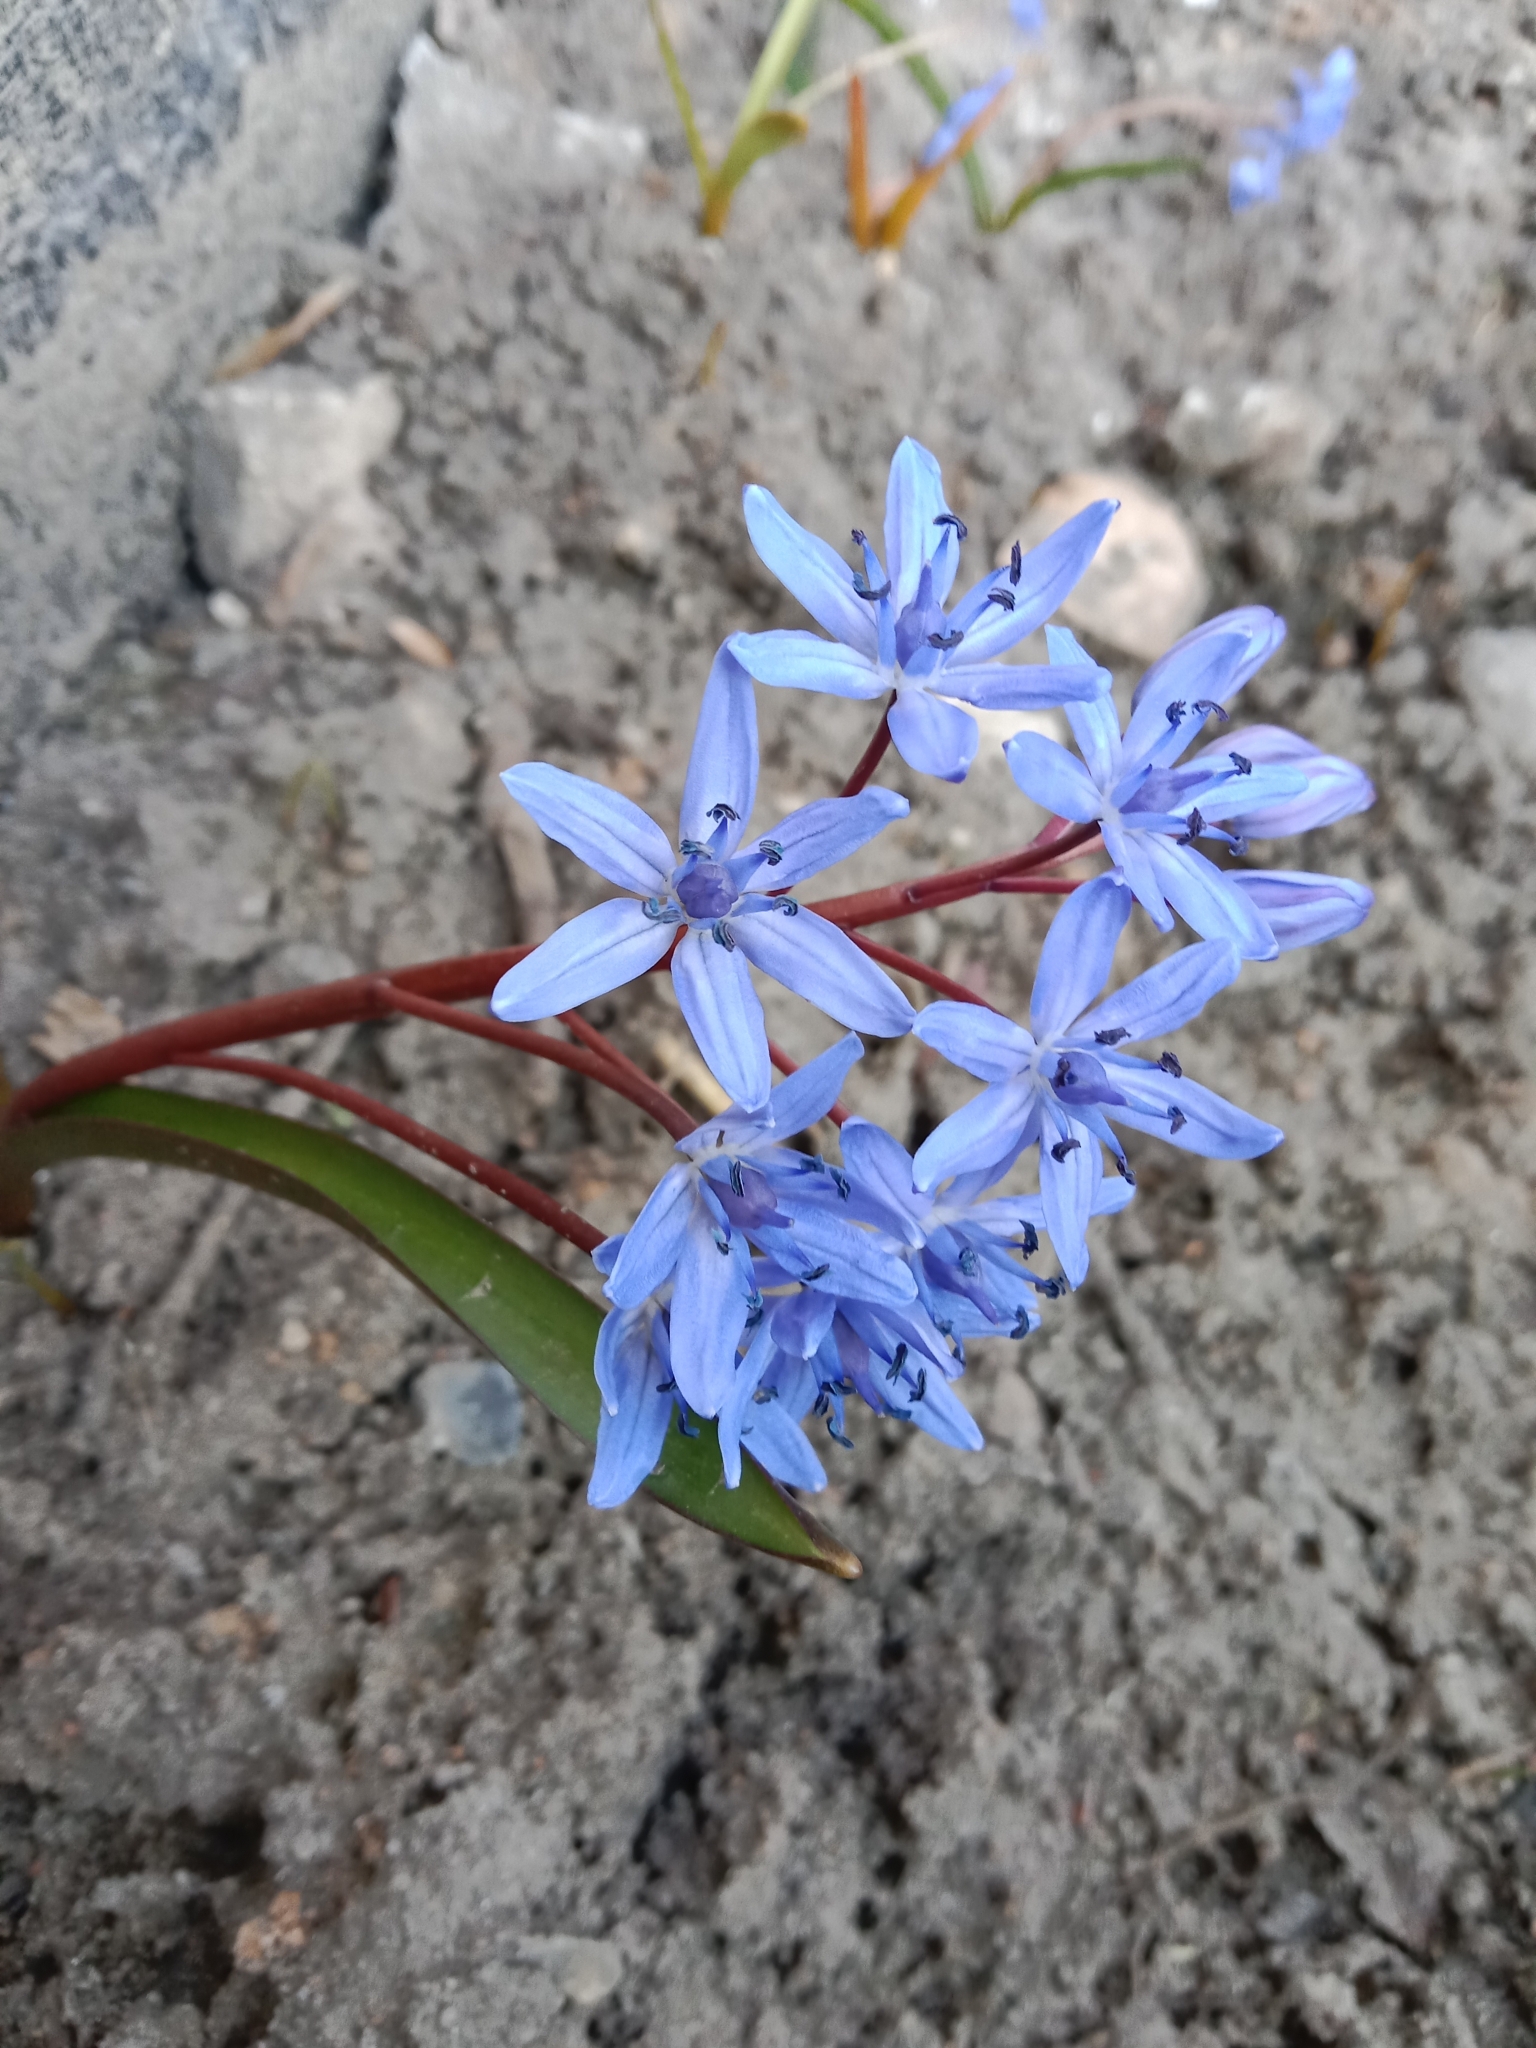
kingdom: Plantae
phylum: Tracheophyta
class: Liliopsida
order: Asparagales
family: Asparagaceae
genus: Scilla
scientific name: Scilla bifolia
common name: Alpine squill
